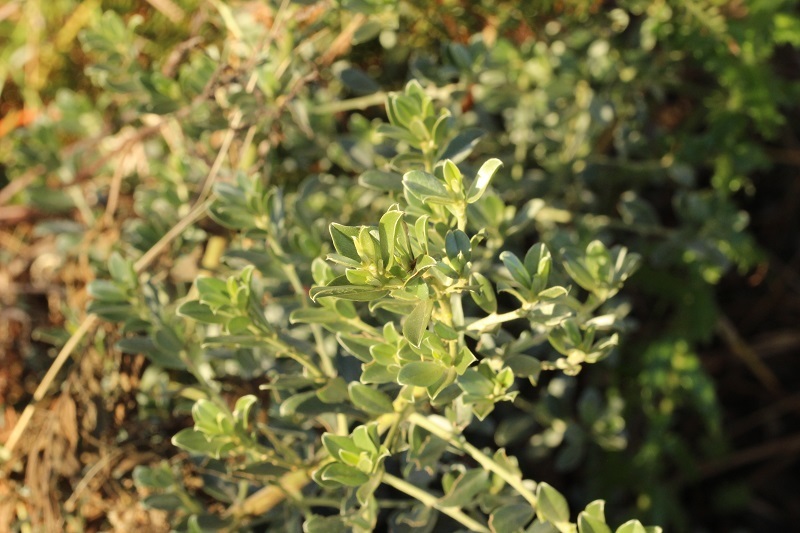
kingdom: Plantae
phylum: Tracheophyta
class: Magnoliopsida
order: Fabales
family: Fabaceae
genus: Podalyria
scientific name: Podalyria myrtillifolia
